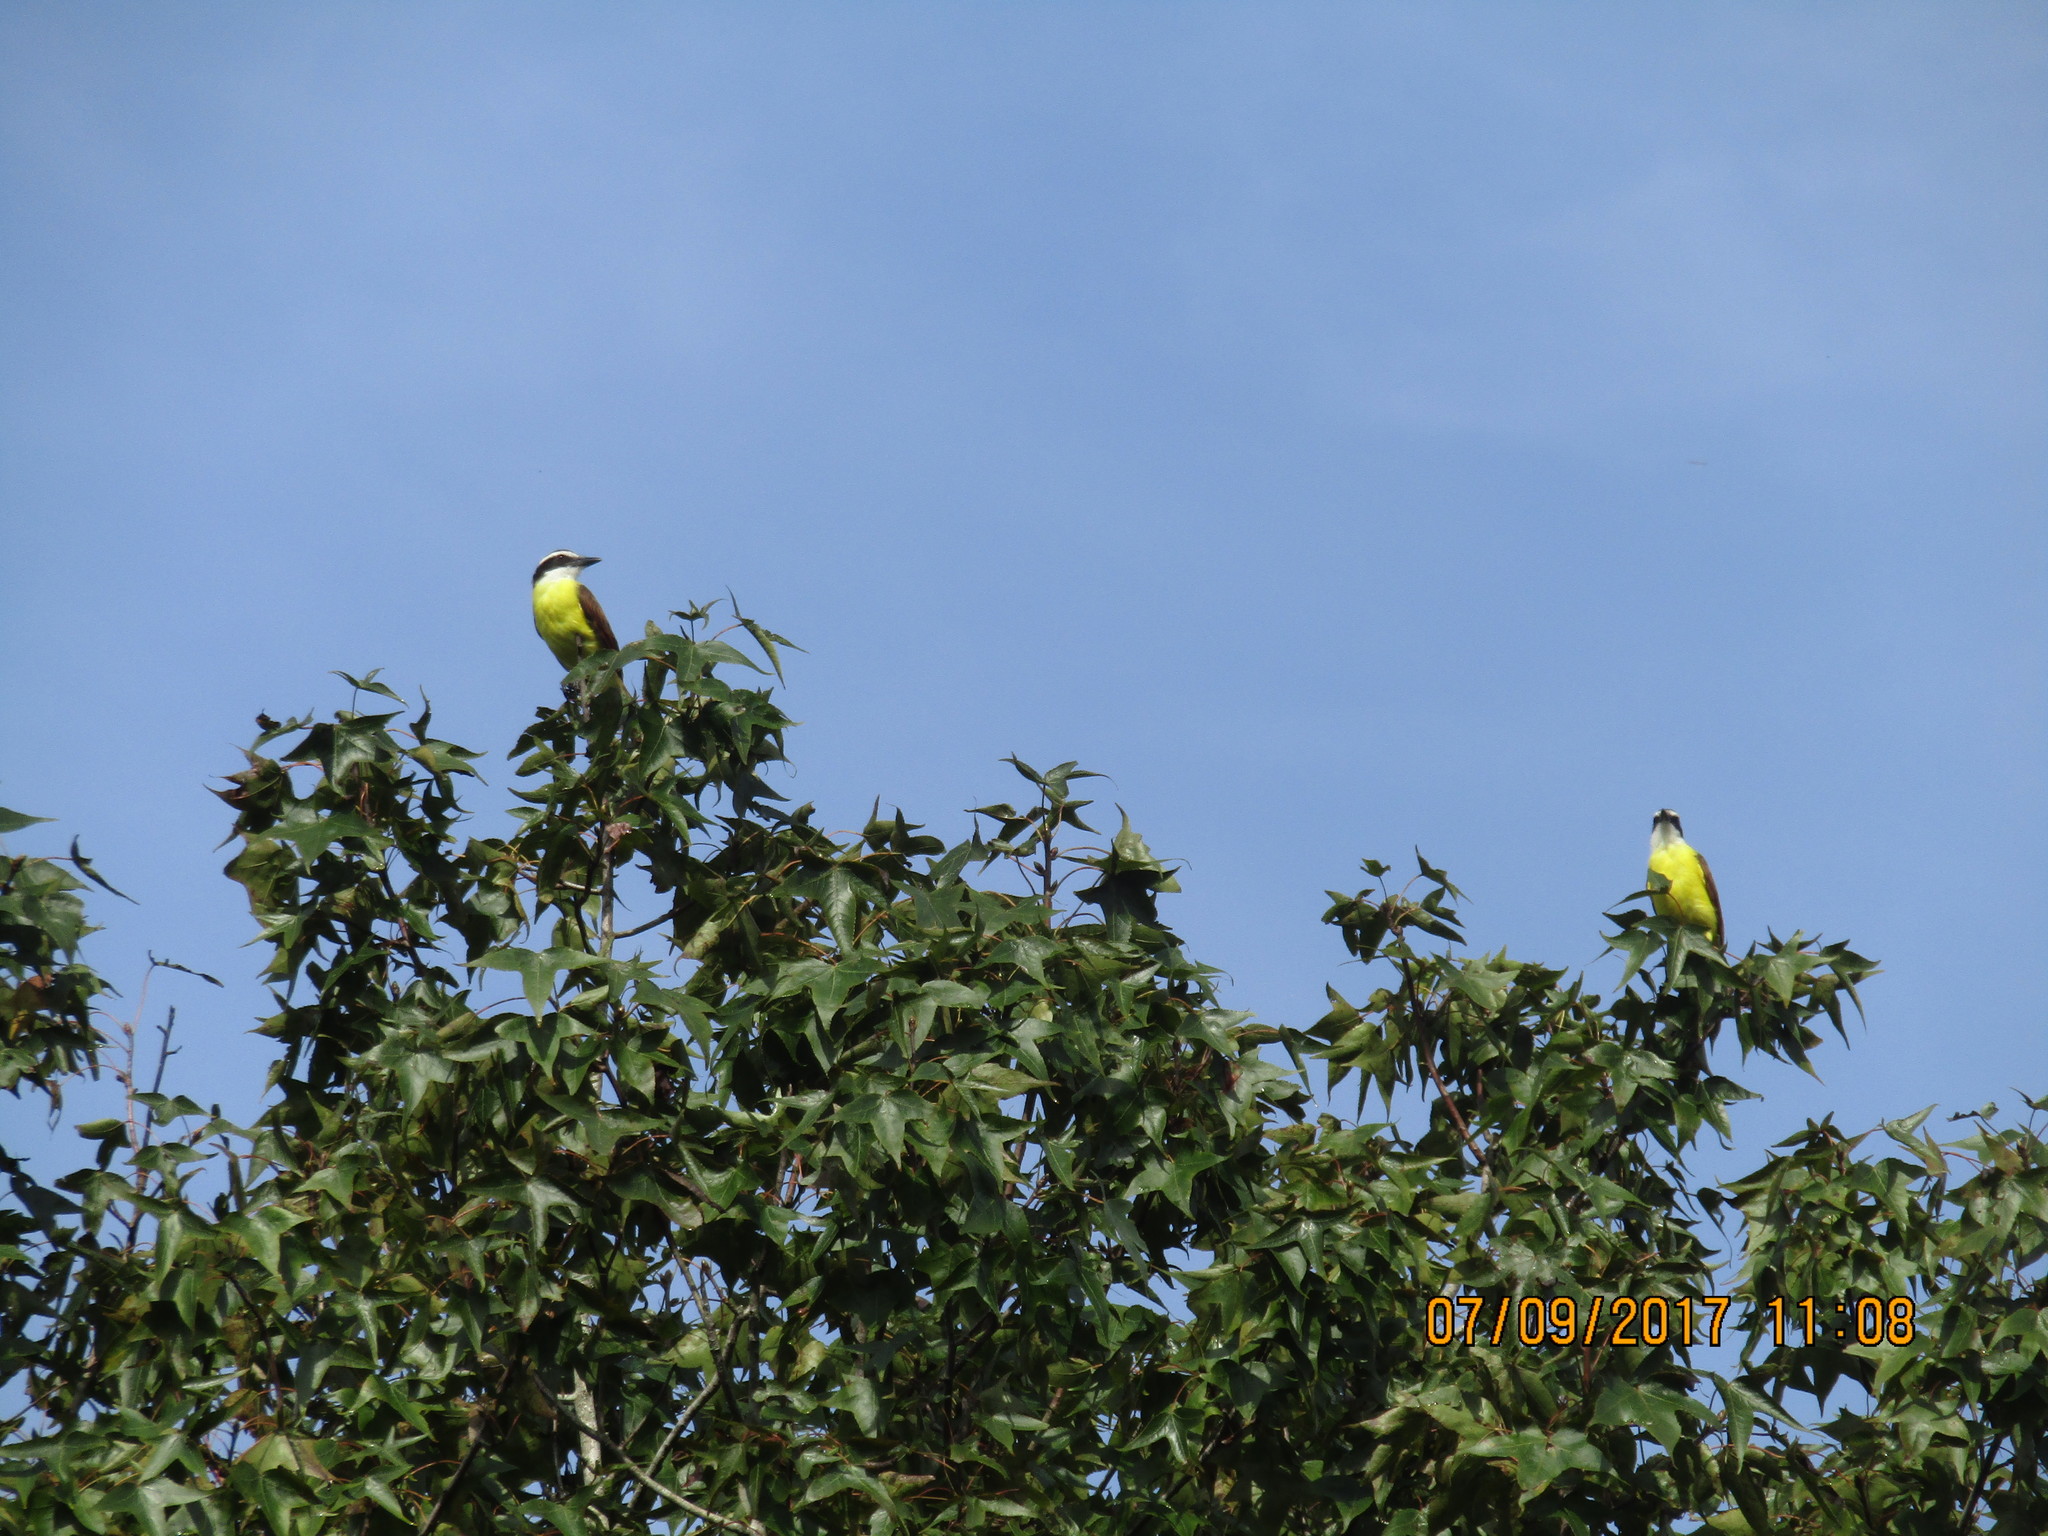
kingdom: Animalia
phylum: Chordata
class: Aves
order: Passeriformes
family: Tyrannidae
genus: Pitangus
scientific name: Pitangus sulphuratus
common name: Great kiskadee
